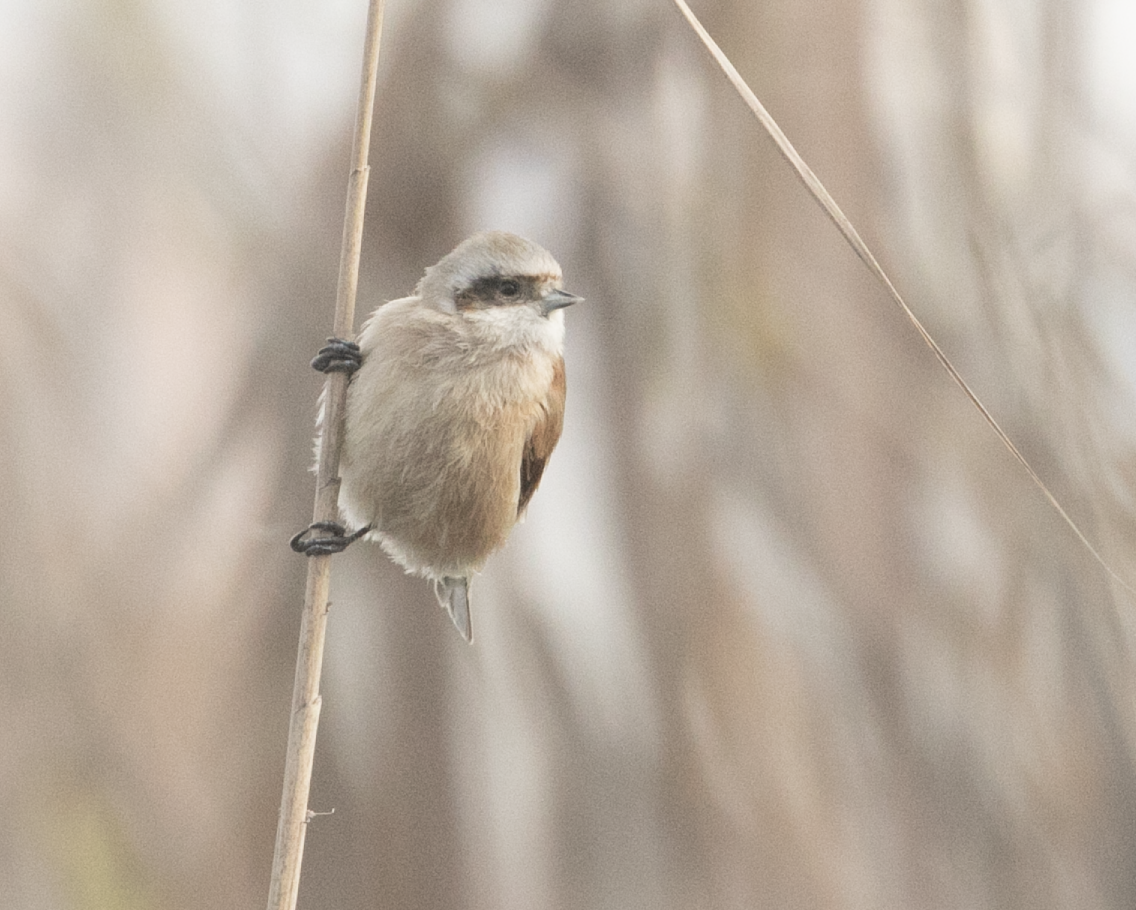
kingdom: Animalia
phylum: Chordata
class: Aves
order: Passeriformes
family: Remizidae
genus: Remiz
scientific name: Remiz pendulinus
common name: Eurasian penduline tit
